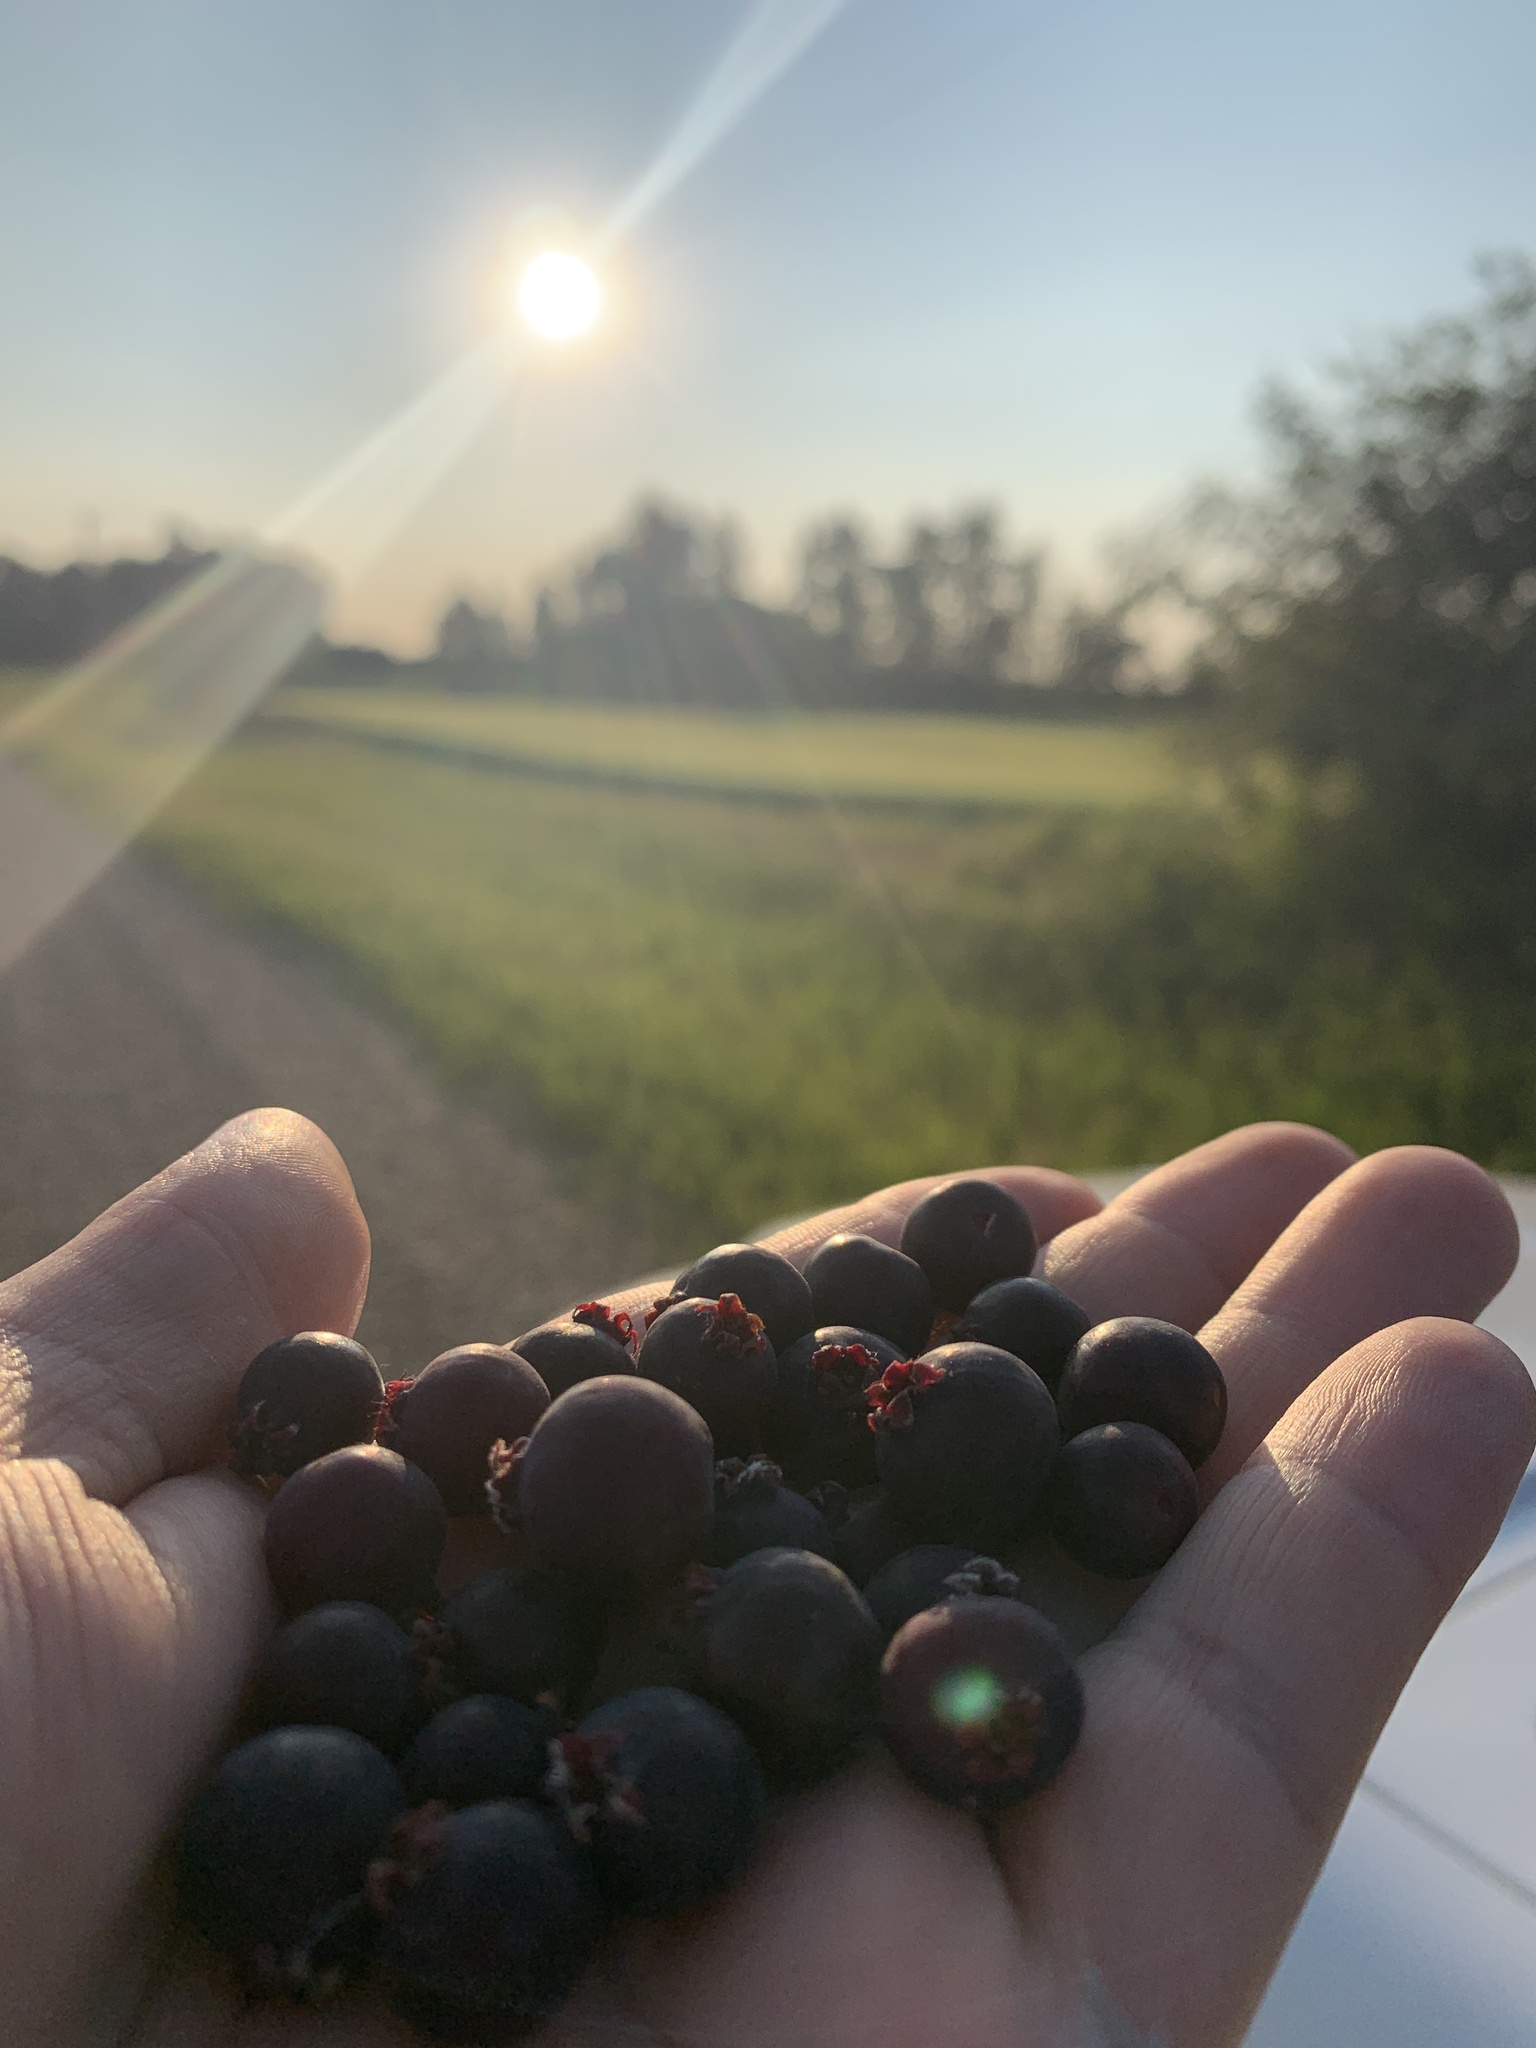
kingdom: Plantae
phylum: Tracheophyta
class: Magnoliopsida
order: Rosales
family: Rosaceae
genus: Amelanchier
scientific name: Amelanchier alnifolia
